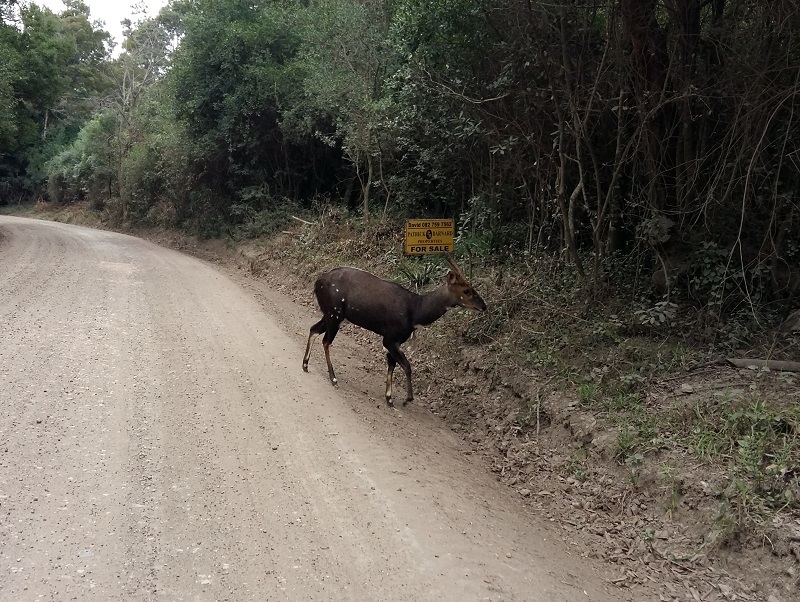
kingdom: Animalia
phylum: Chordata
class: Mammalia
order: Artiodactyla
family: Bovidae
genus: Tragelaphus
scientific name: Tragelaphus scriptus
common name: Bushbuck
